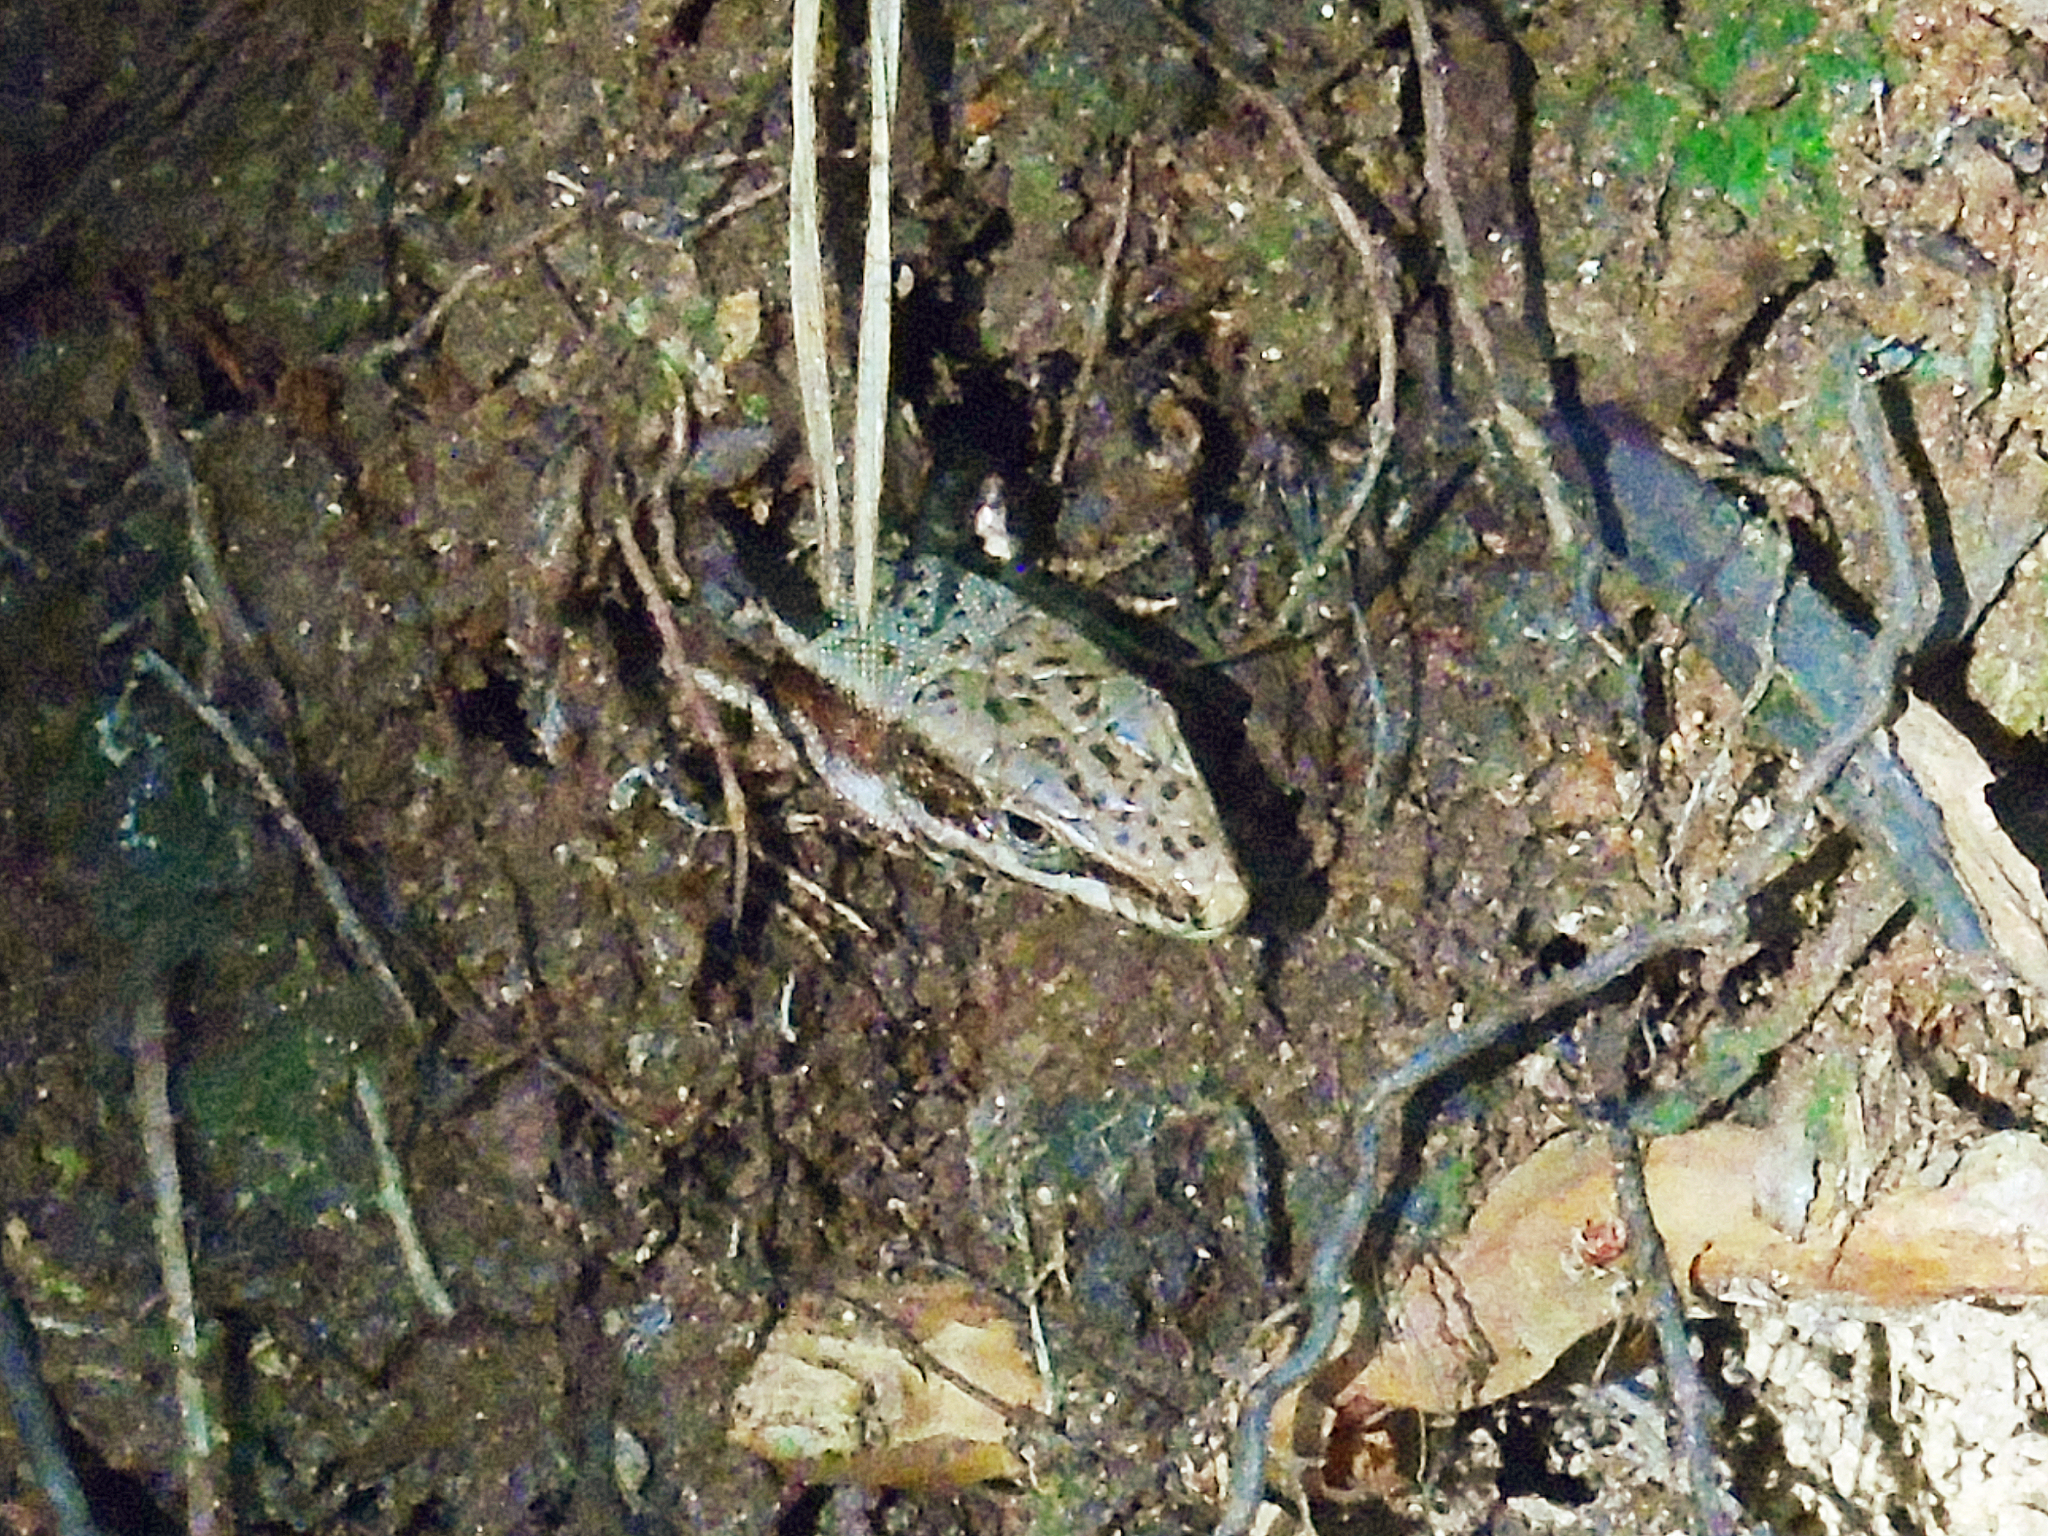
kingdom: Animalia
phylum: Chordata
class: Squamata
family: Lacertidae
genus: Podarcis
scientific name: Podarcis muralis
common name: Common wall lizard
